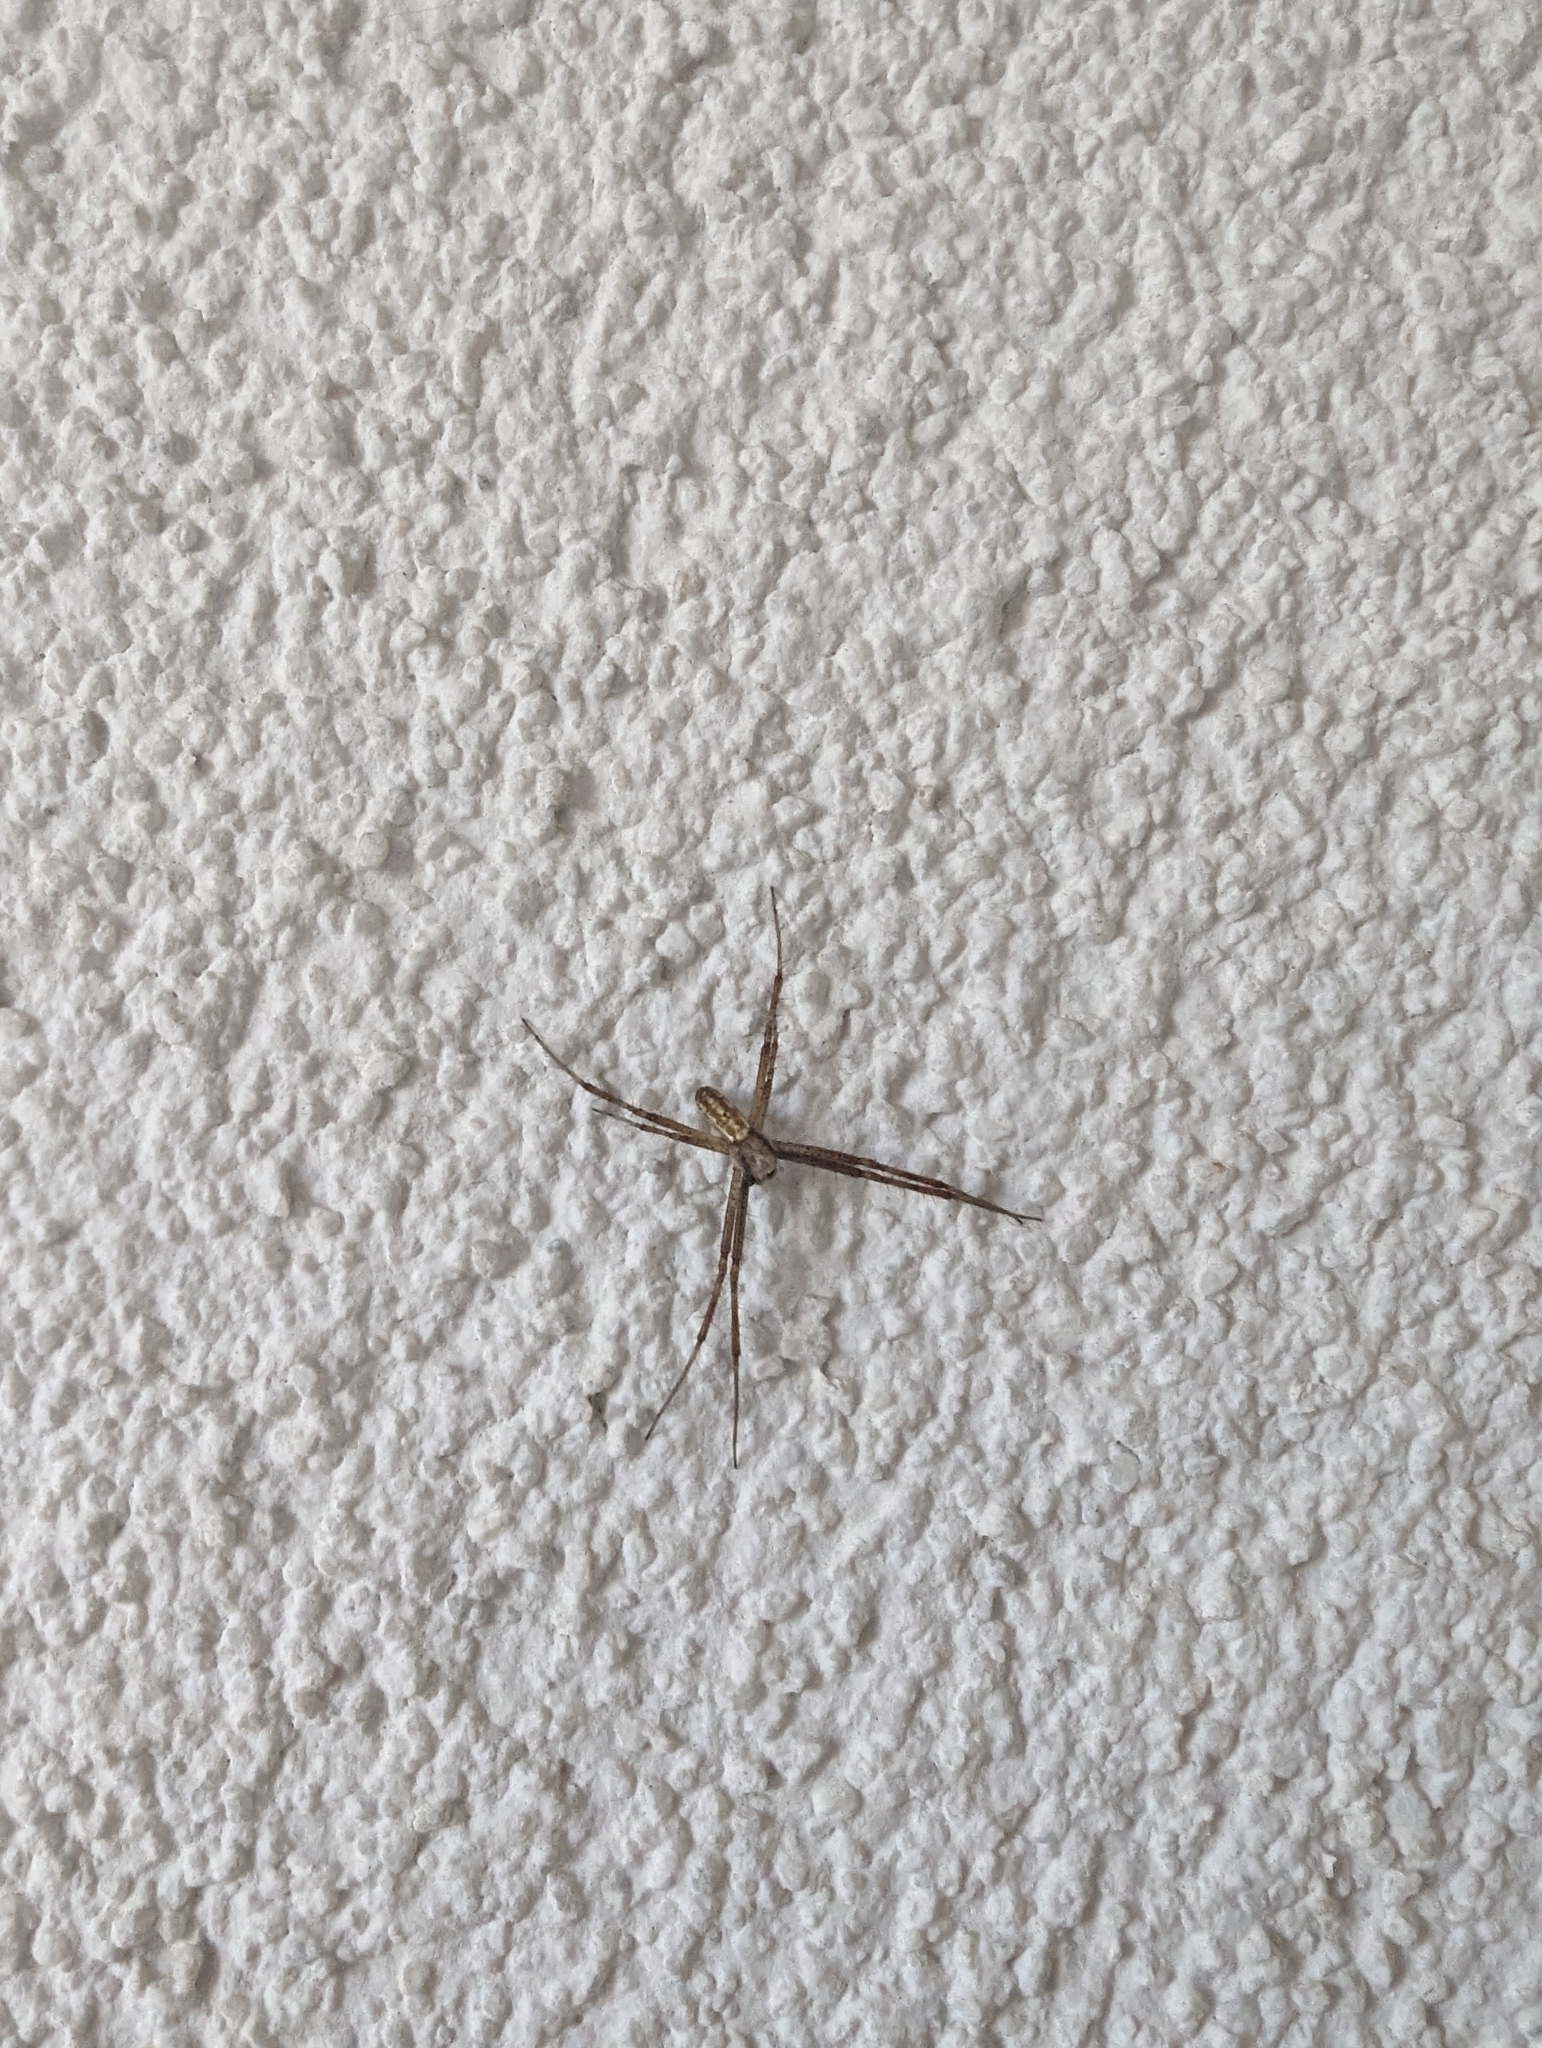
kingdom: Animalia
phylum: Arthropoda
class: Arachnida
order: Araneae
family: Araneidae
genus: Argiope
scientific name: Argiope bruennichi
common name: Wasp spider
